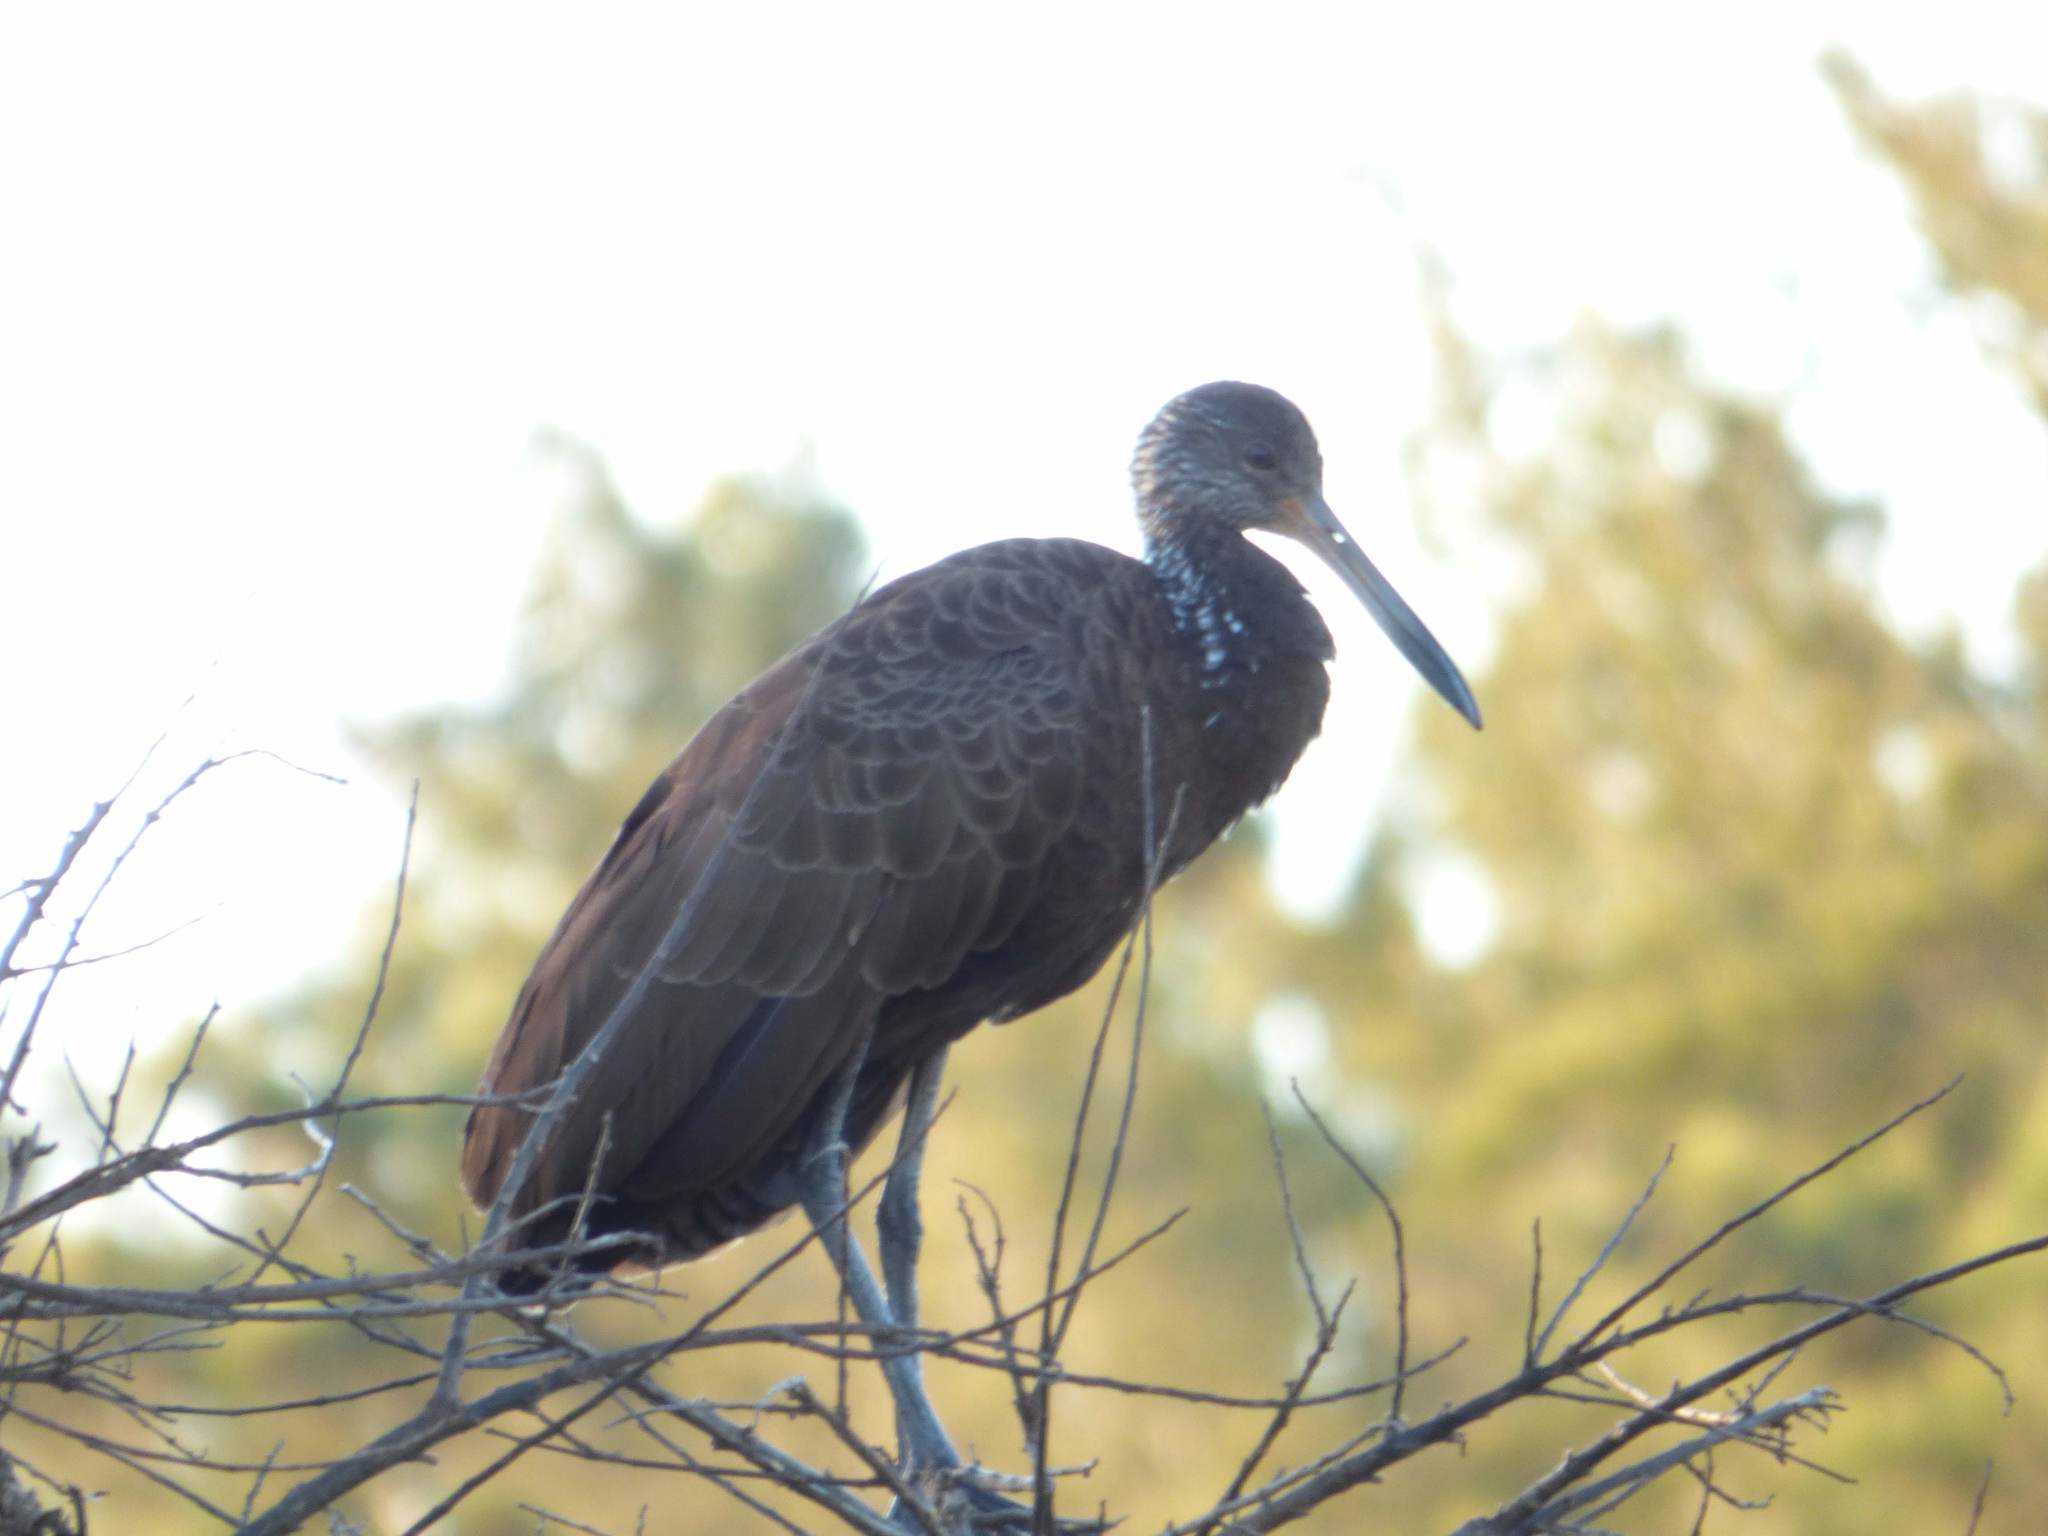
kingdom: Animalia
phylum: Chordata
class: Aves
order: Gruiformes
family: Aramidae
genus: Aramus
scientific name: Aramus guarauna
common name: Limpkin
